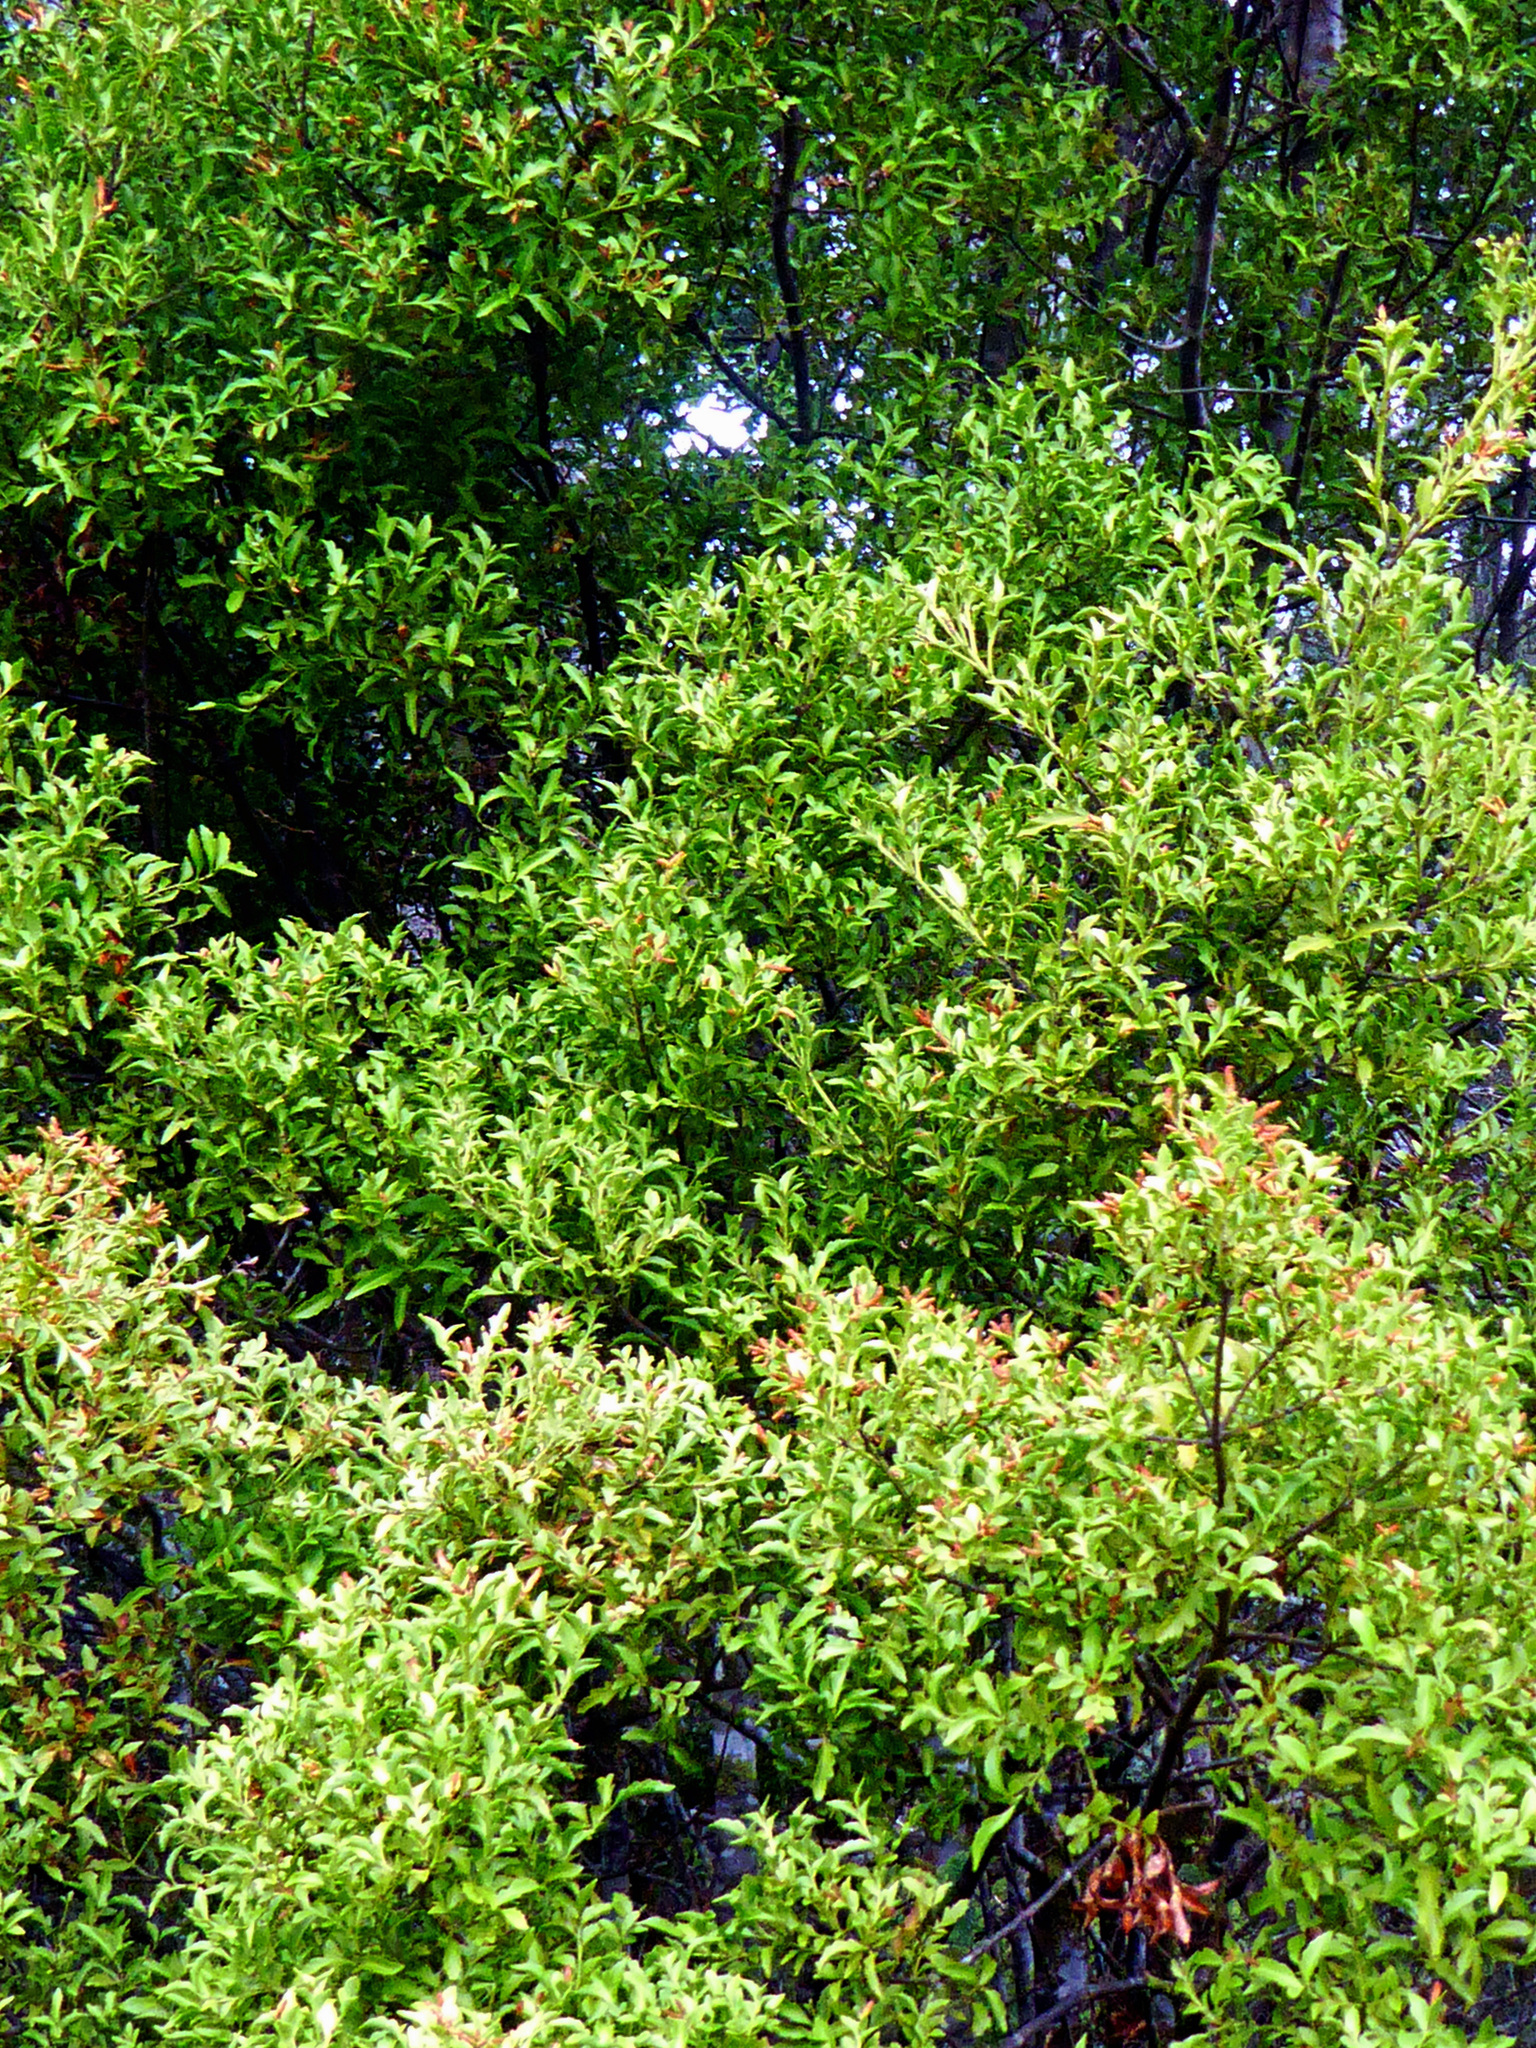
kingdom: Plantae
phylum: Tracheophyta
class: Pinopsida
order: Pinales
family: Phyllocladaceae
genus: Phyllocladus
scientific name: Phyllocladus trichomanoides
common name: Celery pine
